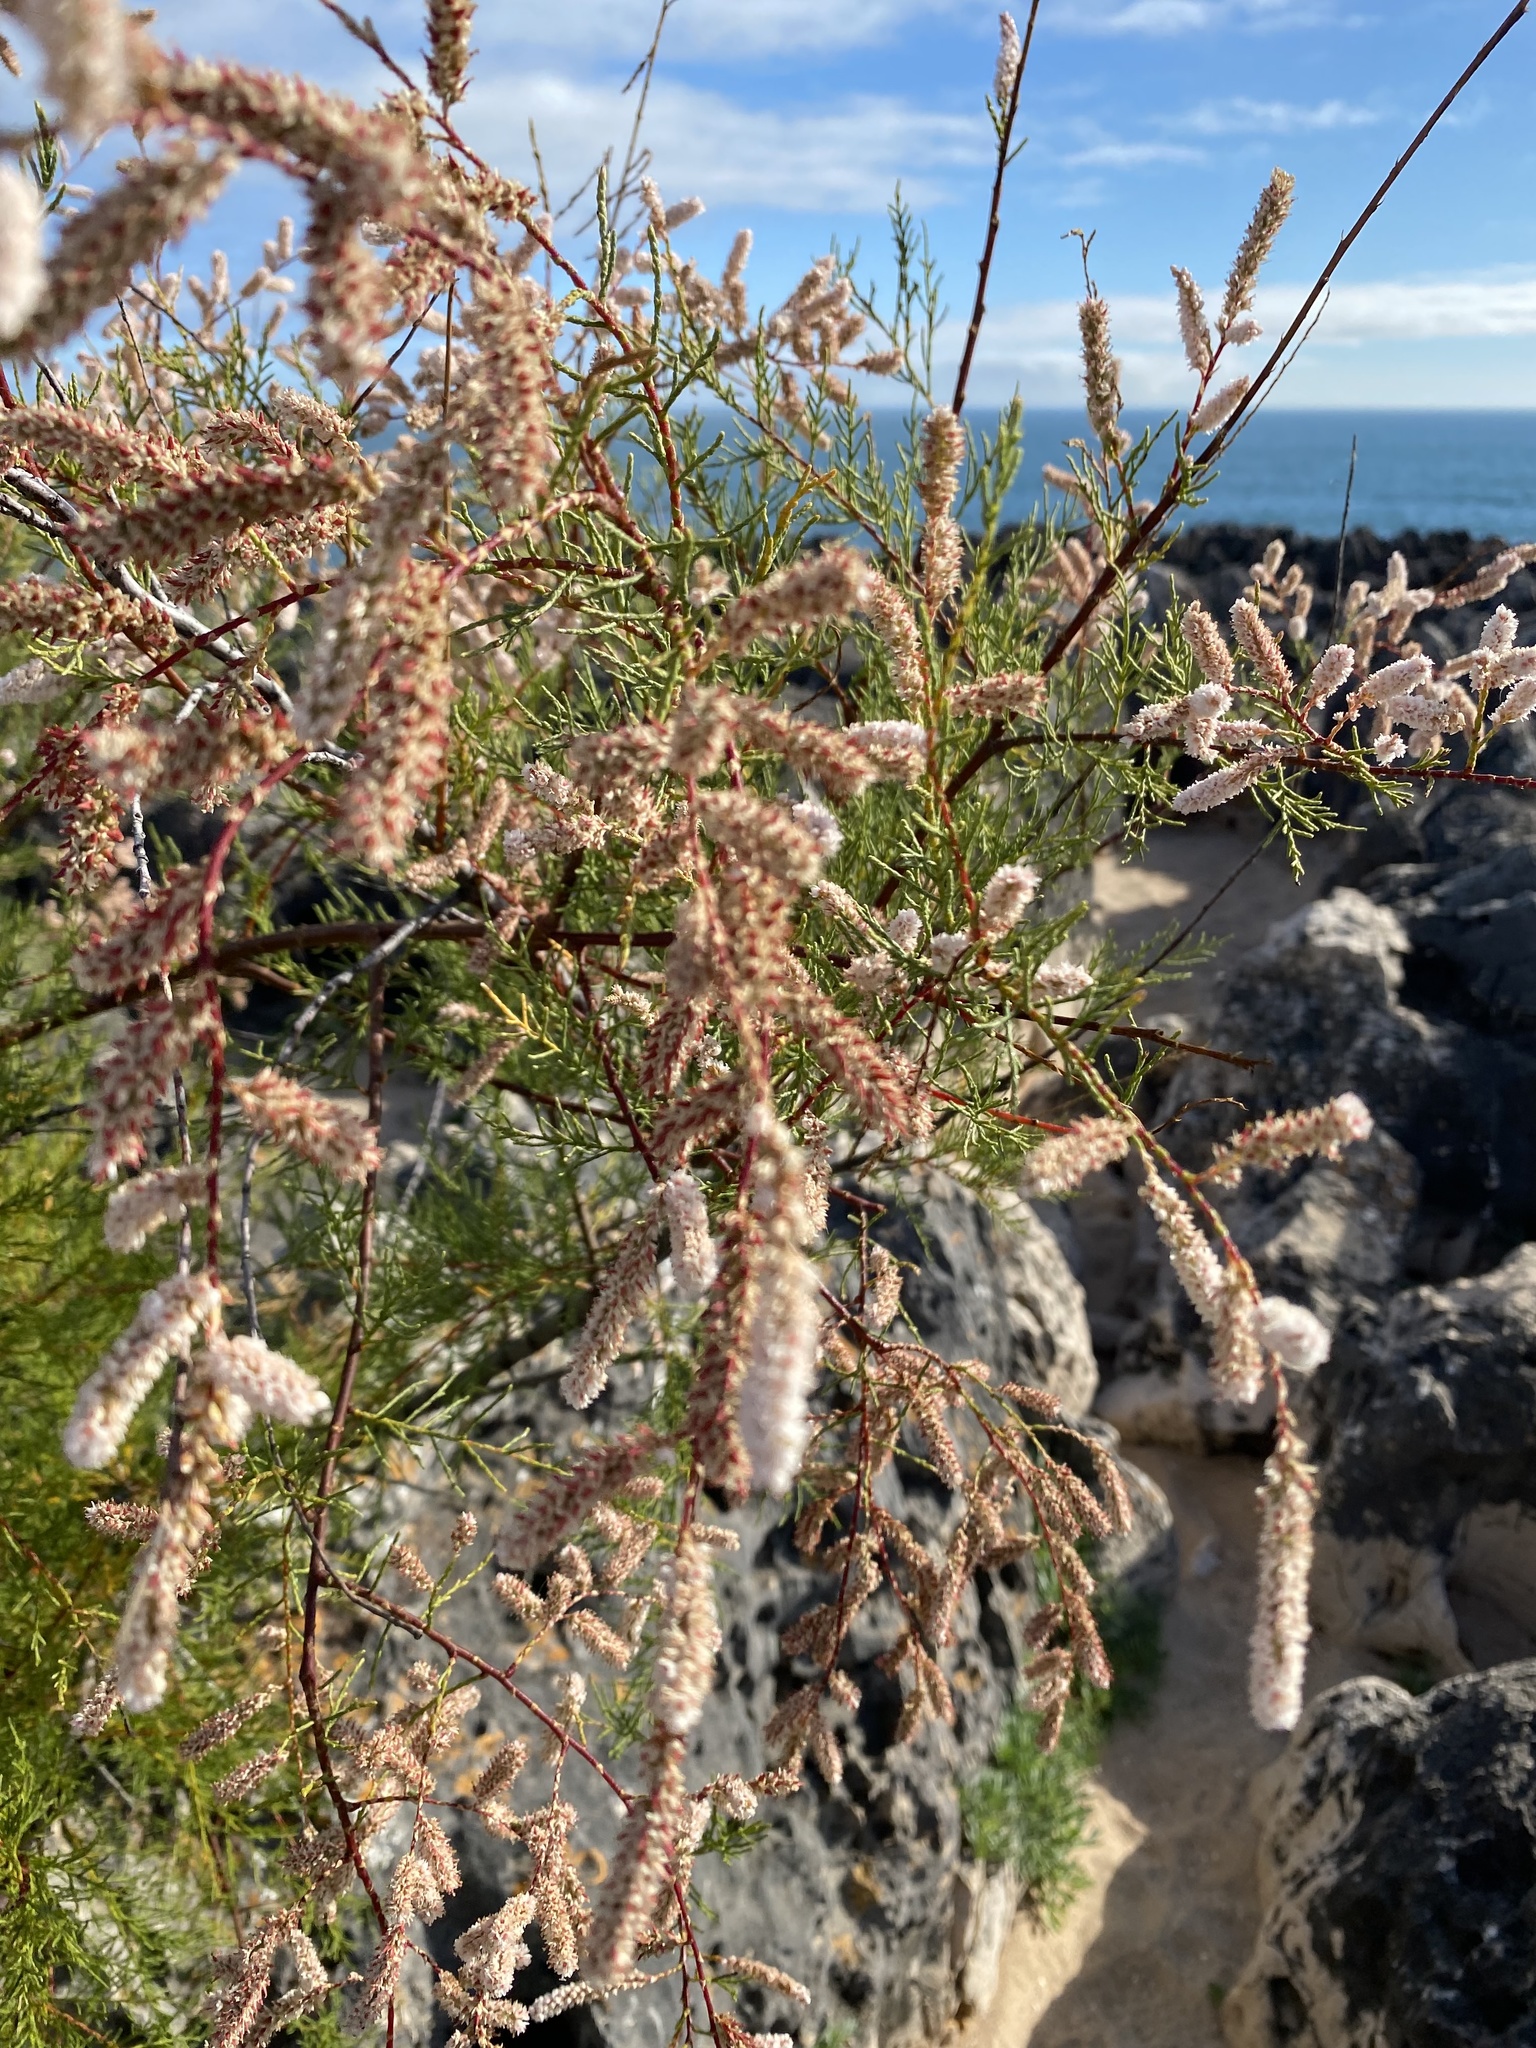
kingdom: Plantae
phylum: Tracheophyta
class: Magnoliopsida
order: Caryophyllales
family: Tamaricaceae
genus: Tamarix
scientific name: Tamarix africana
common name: African tamarisk
